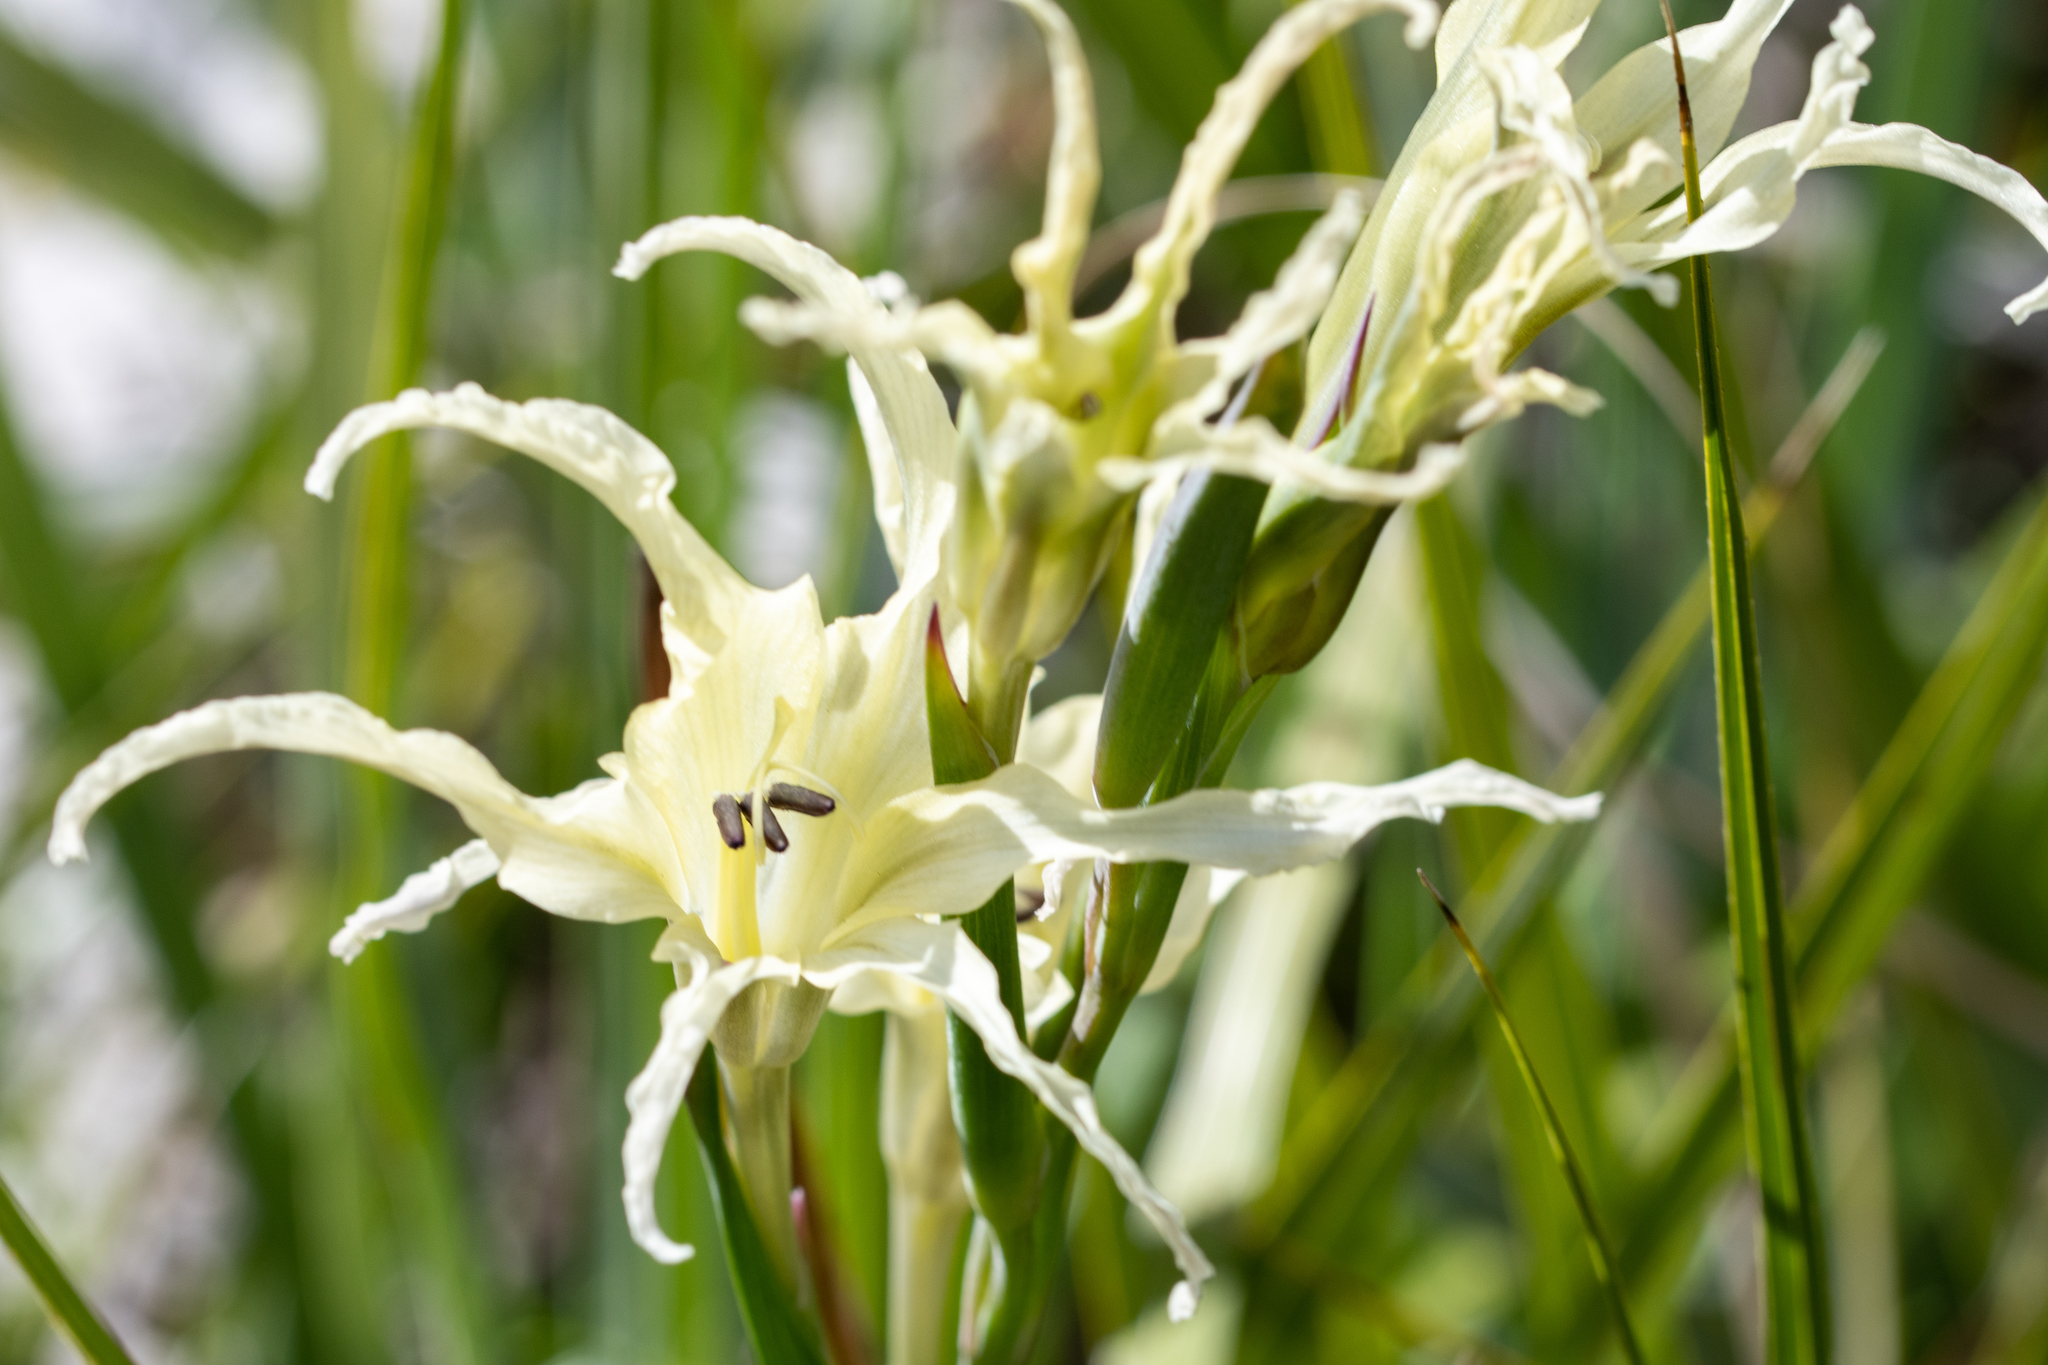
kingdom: Plantae
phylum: Tracheophyta
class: Liliopsida
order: Asparagales
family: Iridaceae
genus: Gladiolus
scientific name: Gladiolus undulatus
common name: Large painted-lady
